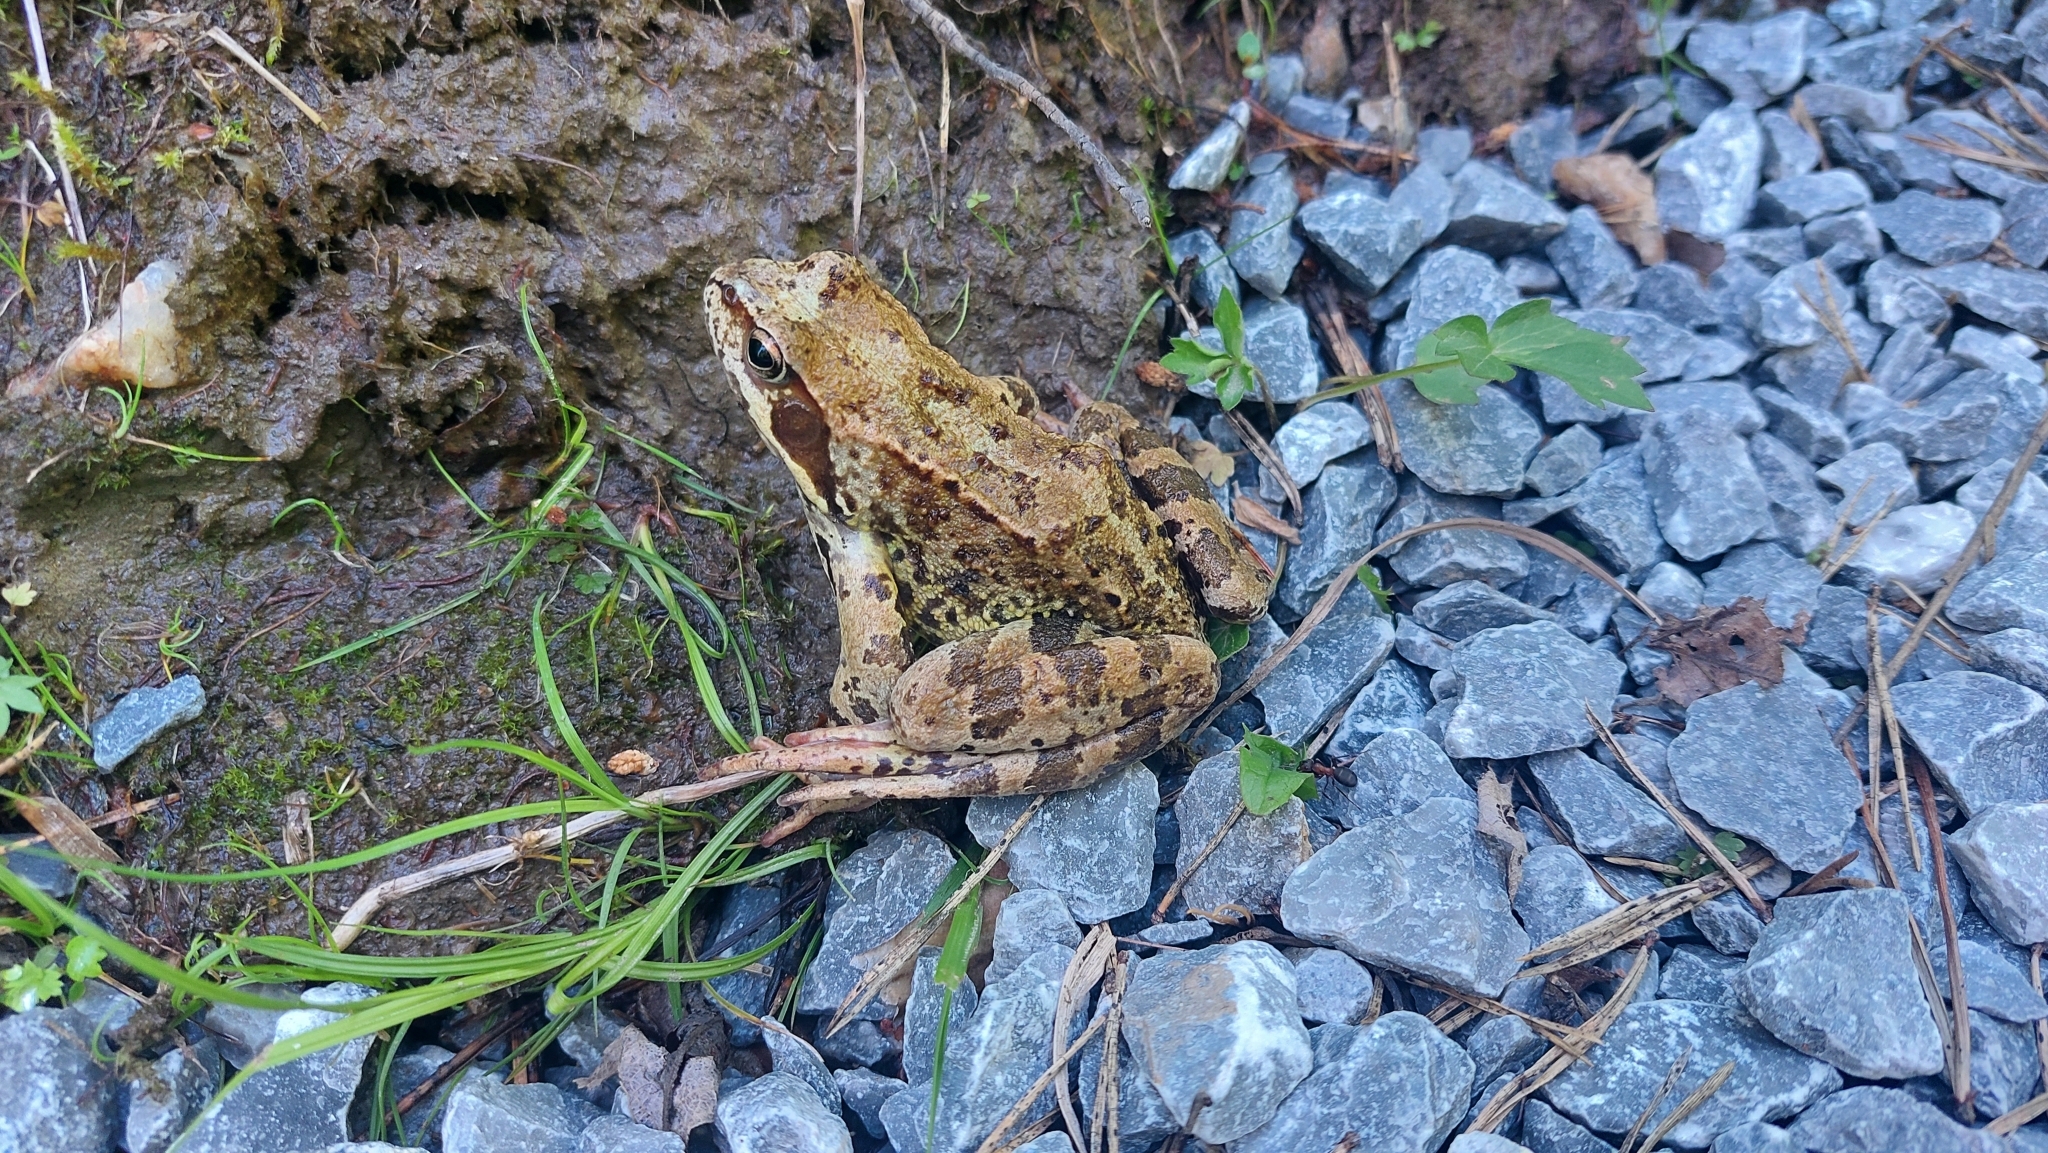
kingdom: Animalia
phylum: Chordata
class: Amphibia
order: Anura
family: Ranidae
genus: Rana
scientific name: Rana temporaria
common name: Common frog
